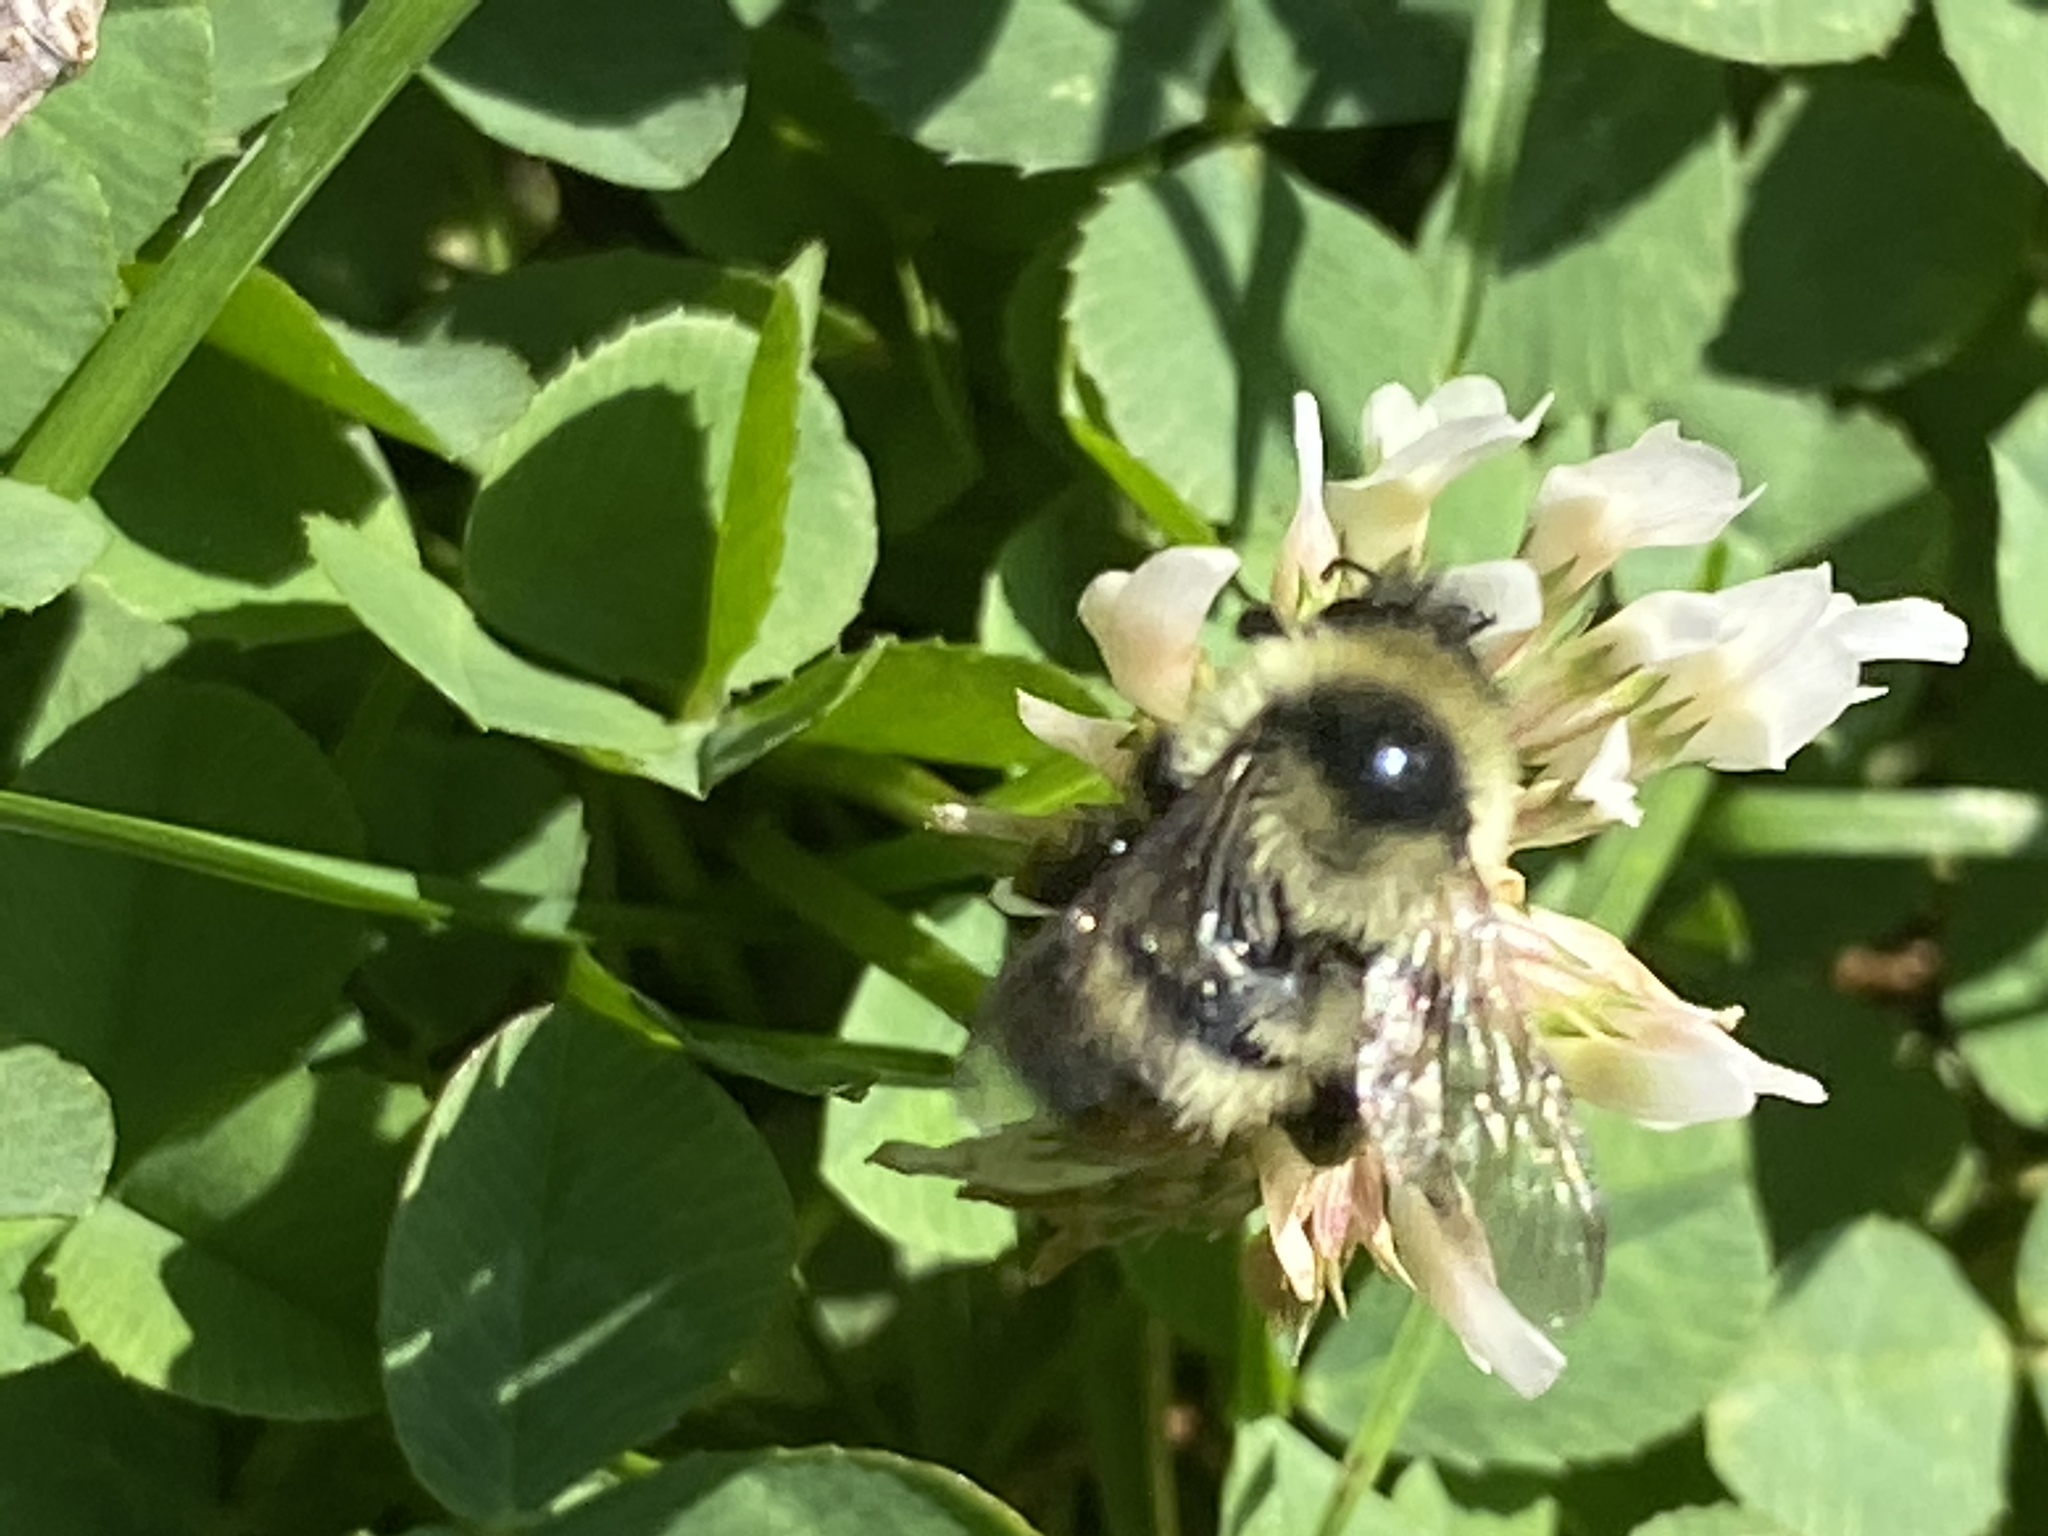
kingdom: Animalia
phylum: Arthropoda
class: Insecta
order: Hymenoptera
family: Apidae
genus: Bombus
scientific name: Bombus rufocinctus
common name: Red-belted bumble bee
